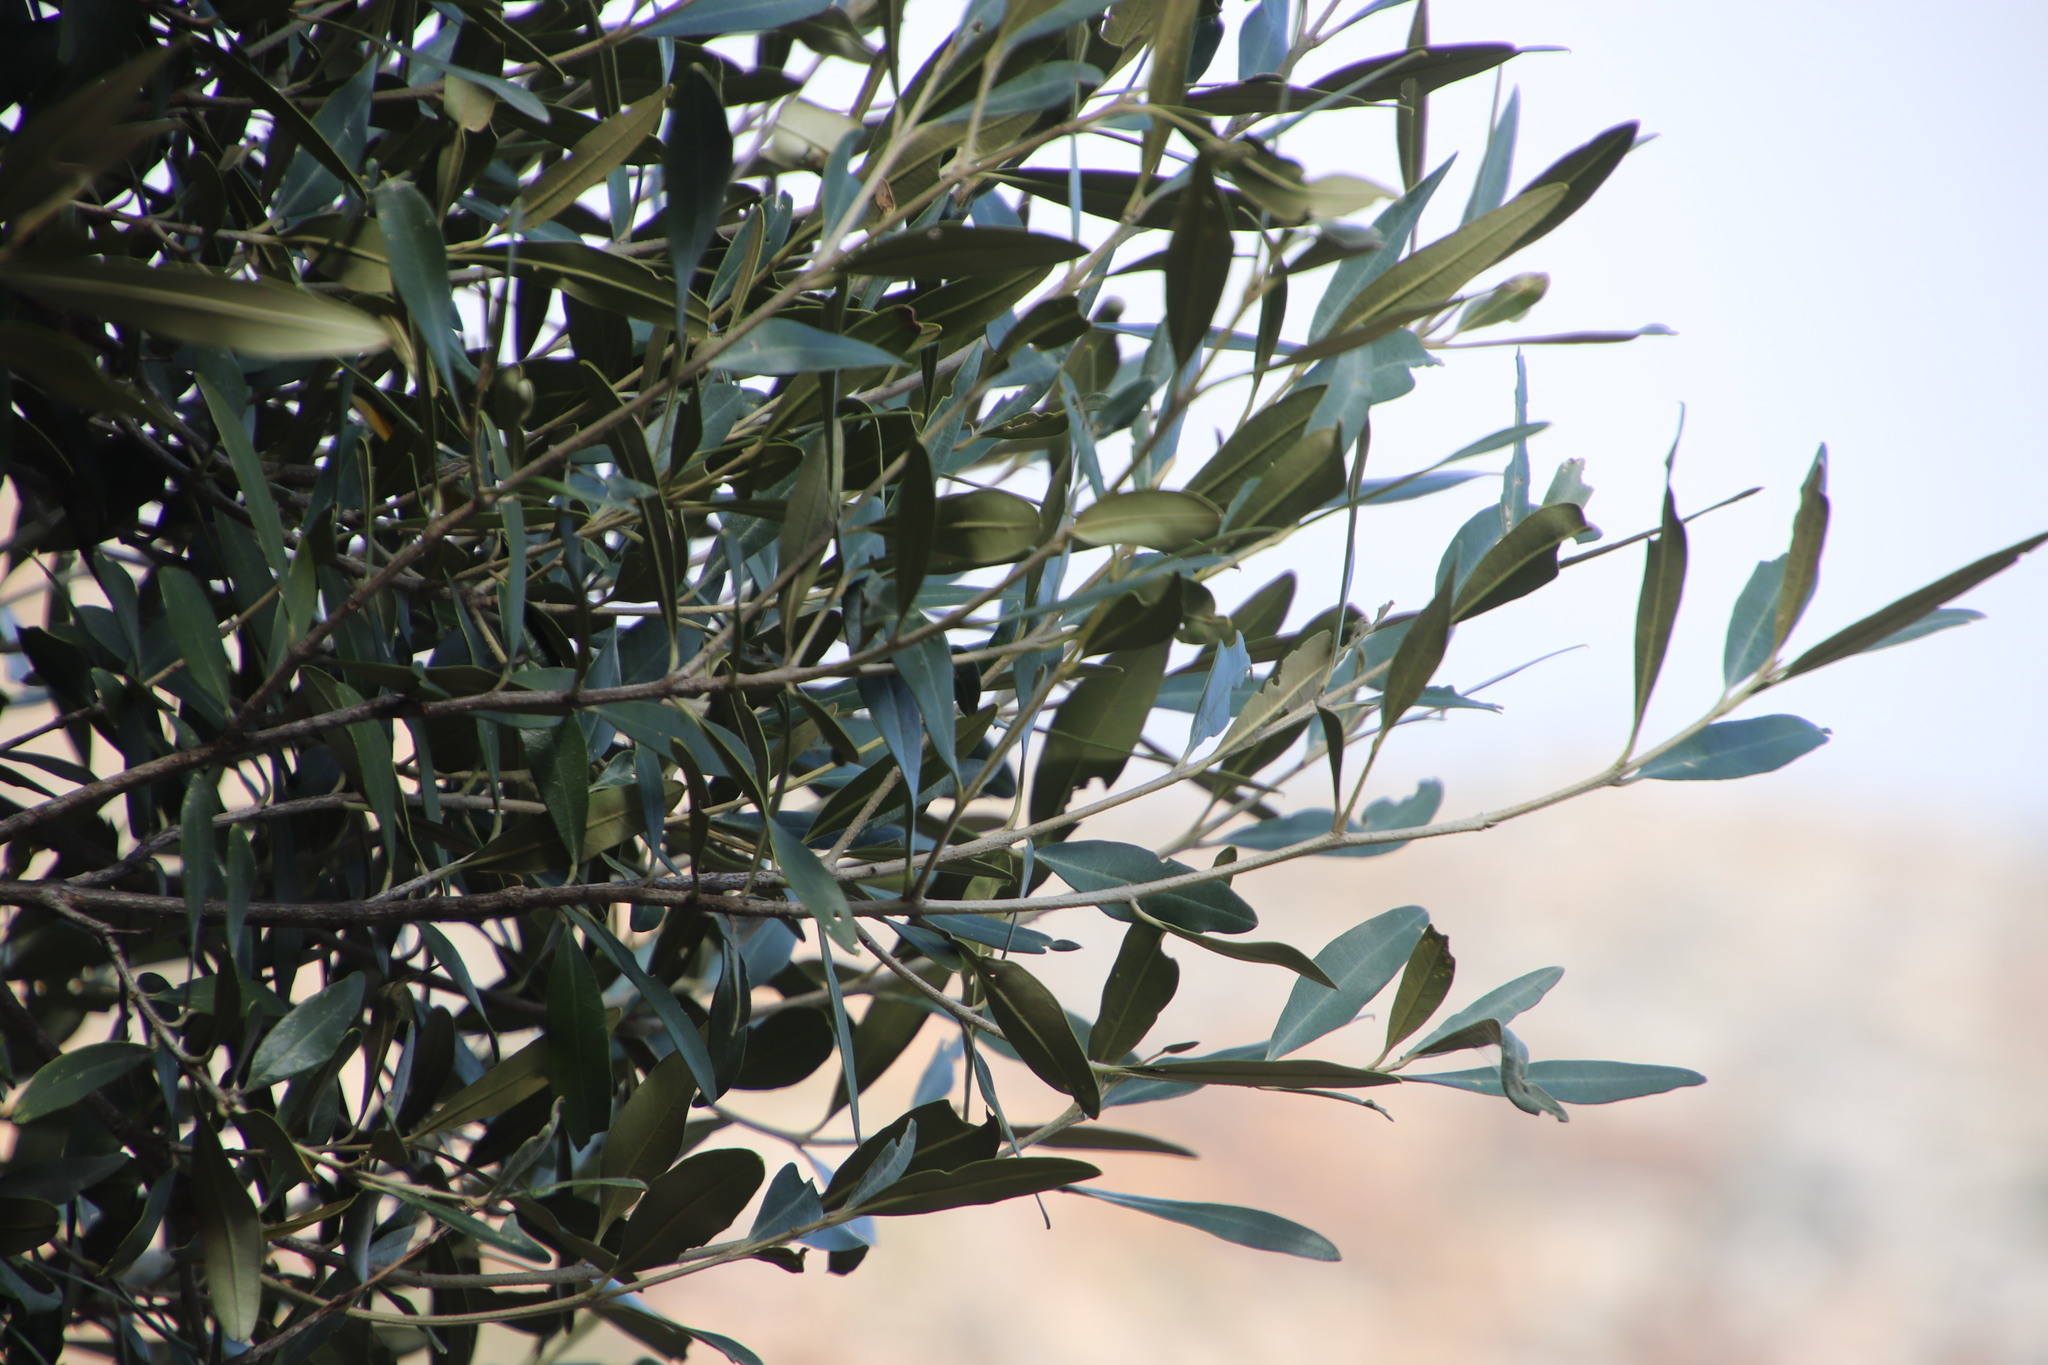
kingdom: Plantae
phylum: Tracheophyta
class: Magnoliopsida
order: Lamiales
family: Oleaceae
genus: Olea
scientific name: Olea europaea
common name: Olive
